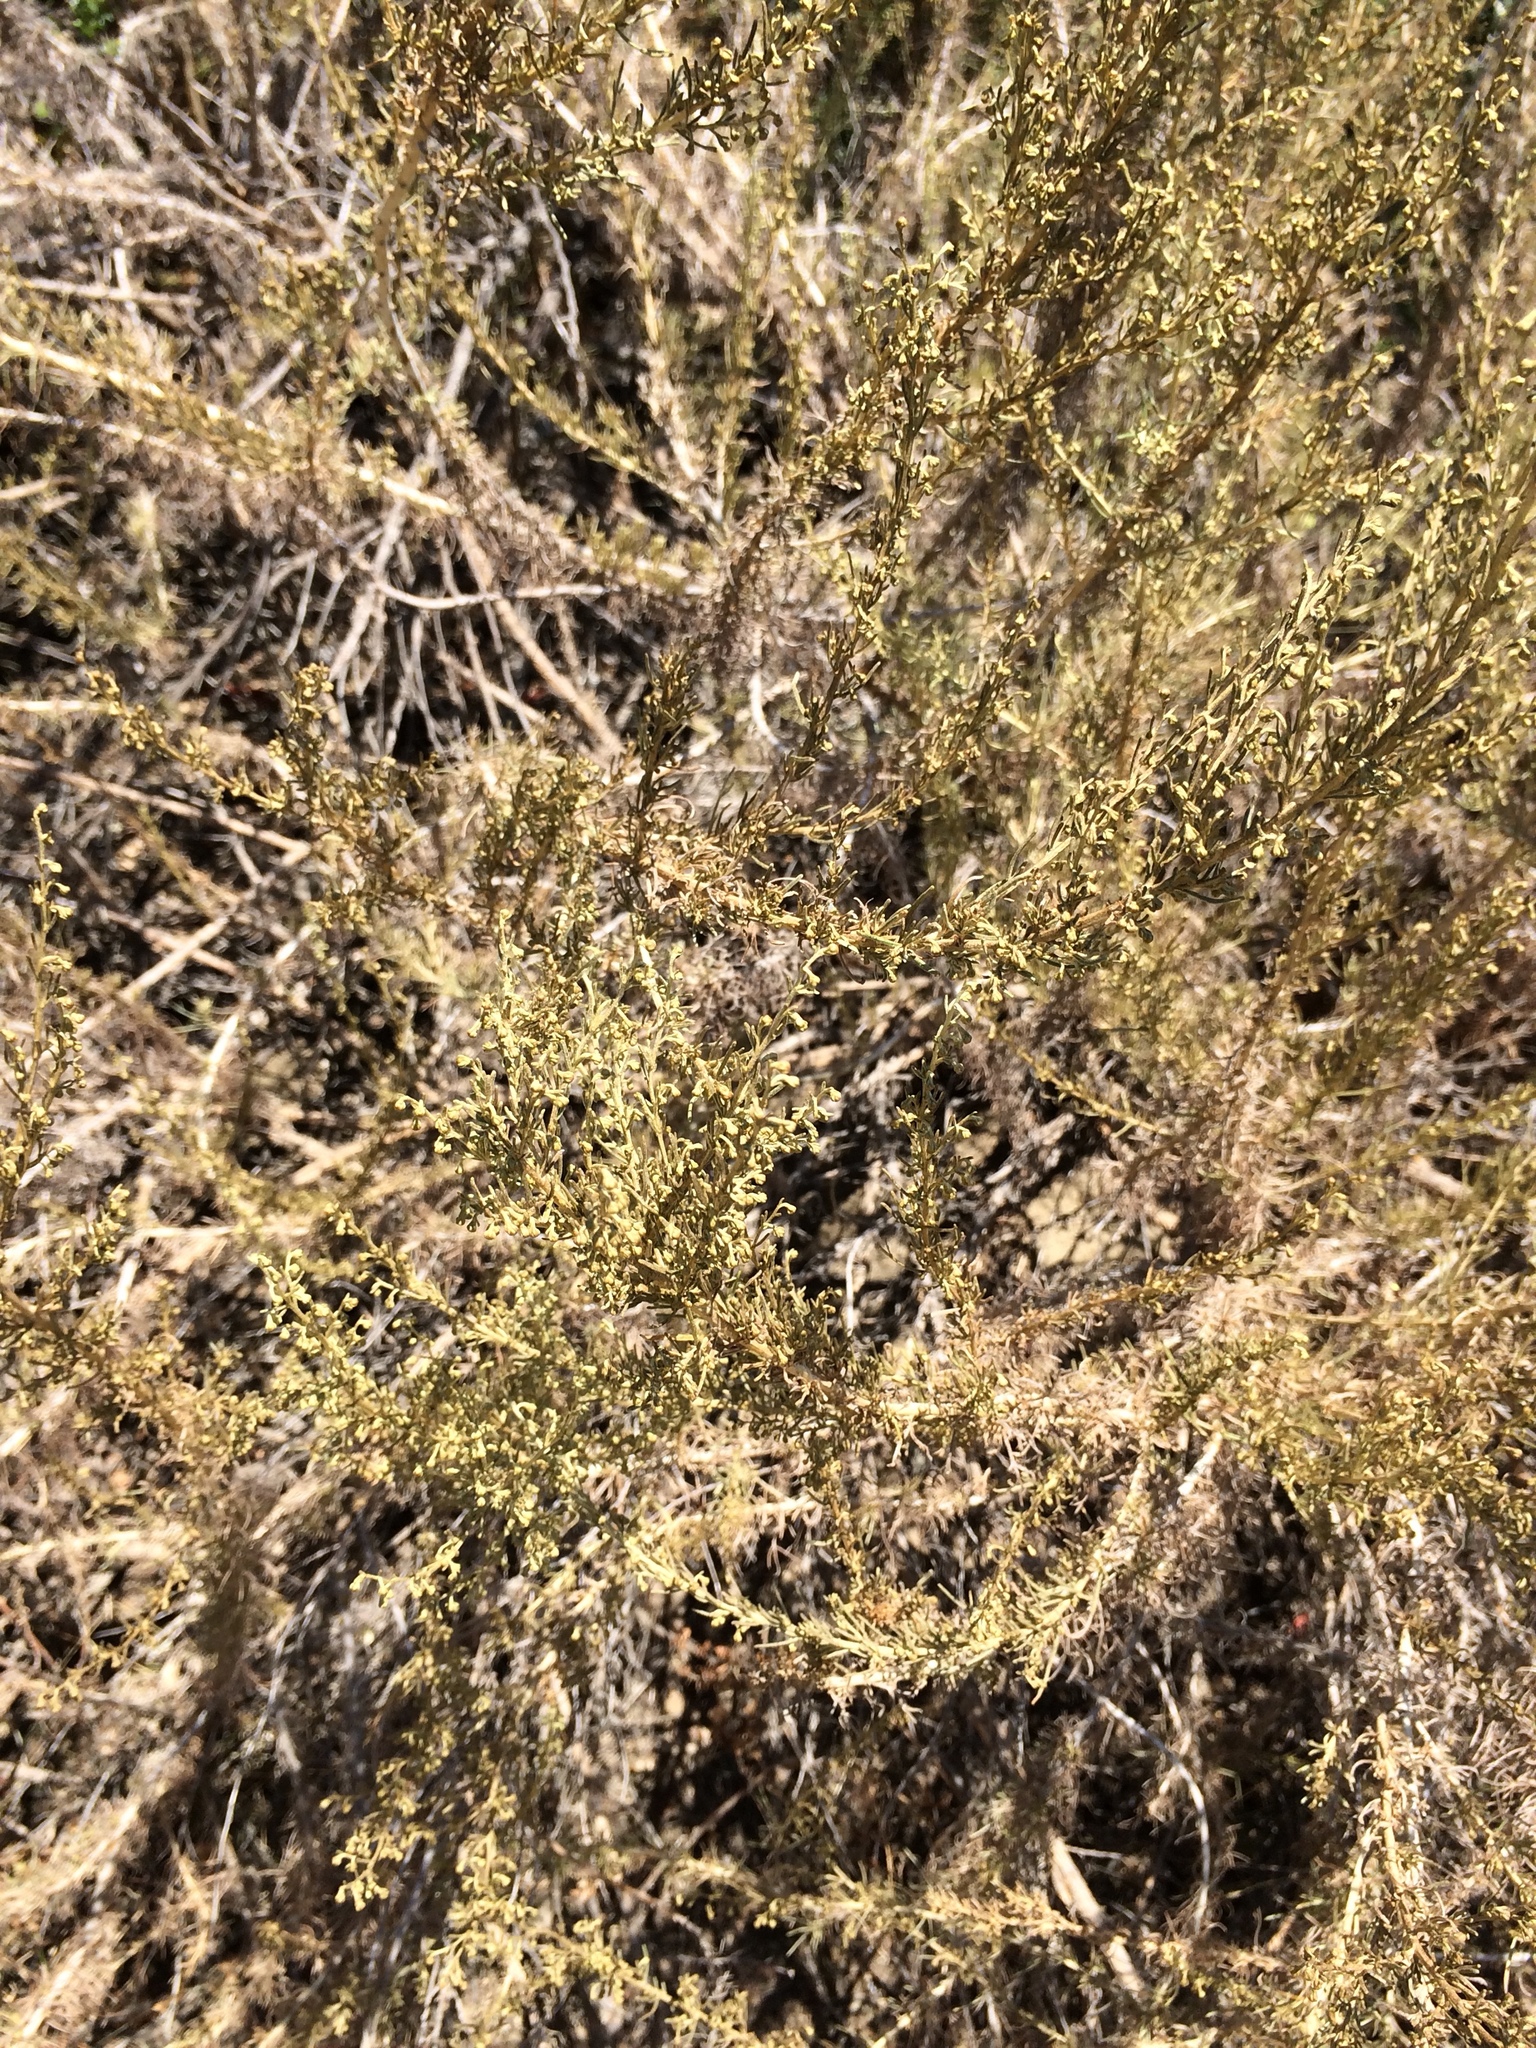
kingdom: Plantae
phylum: Tracheophyta
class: Magnoliopsida
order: Asterales
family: Asteraceae
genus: Artemisia
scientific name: Artemisia californica
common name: California sagebrush
